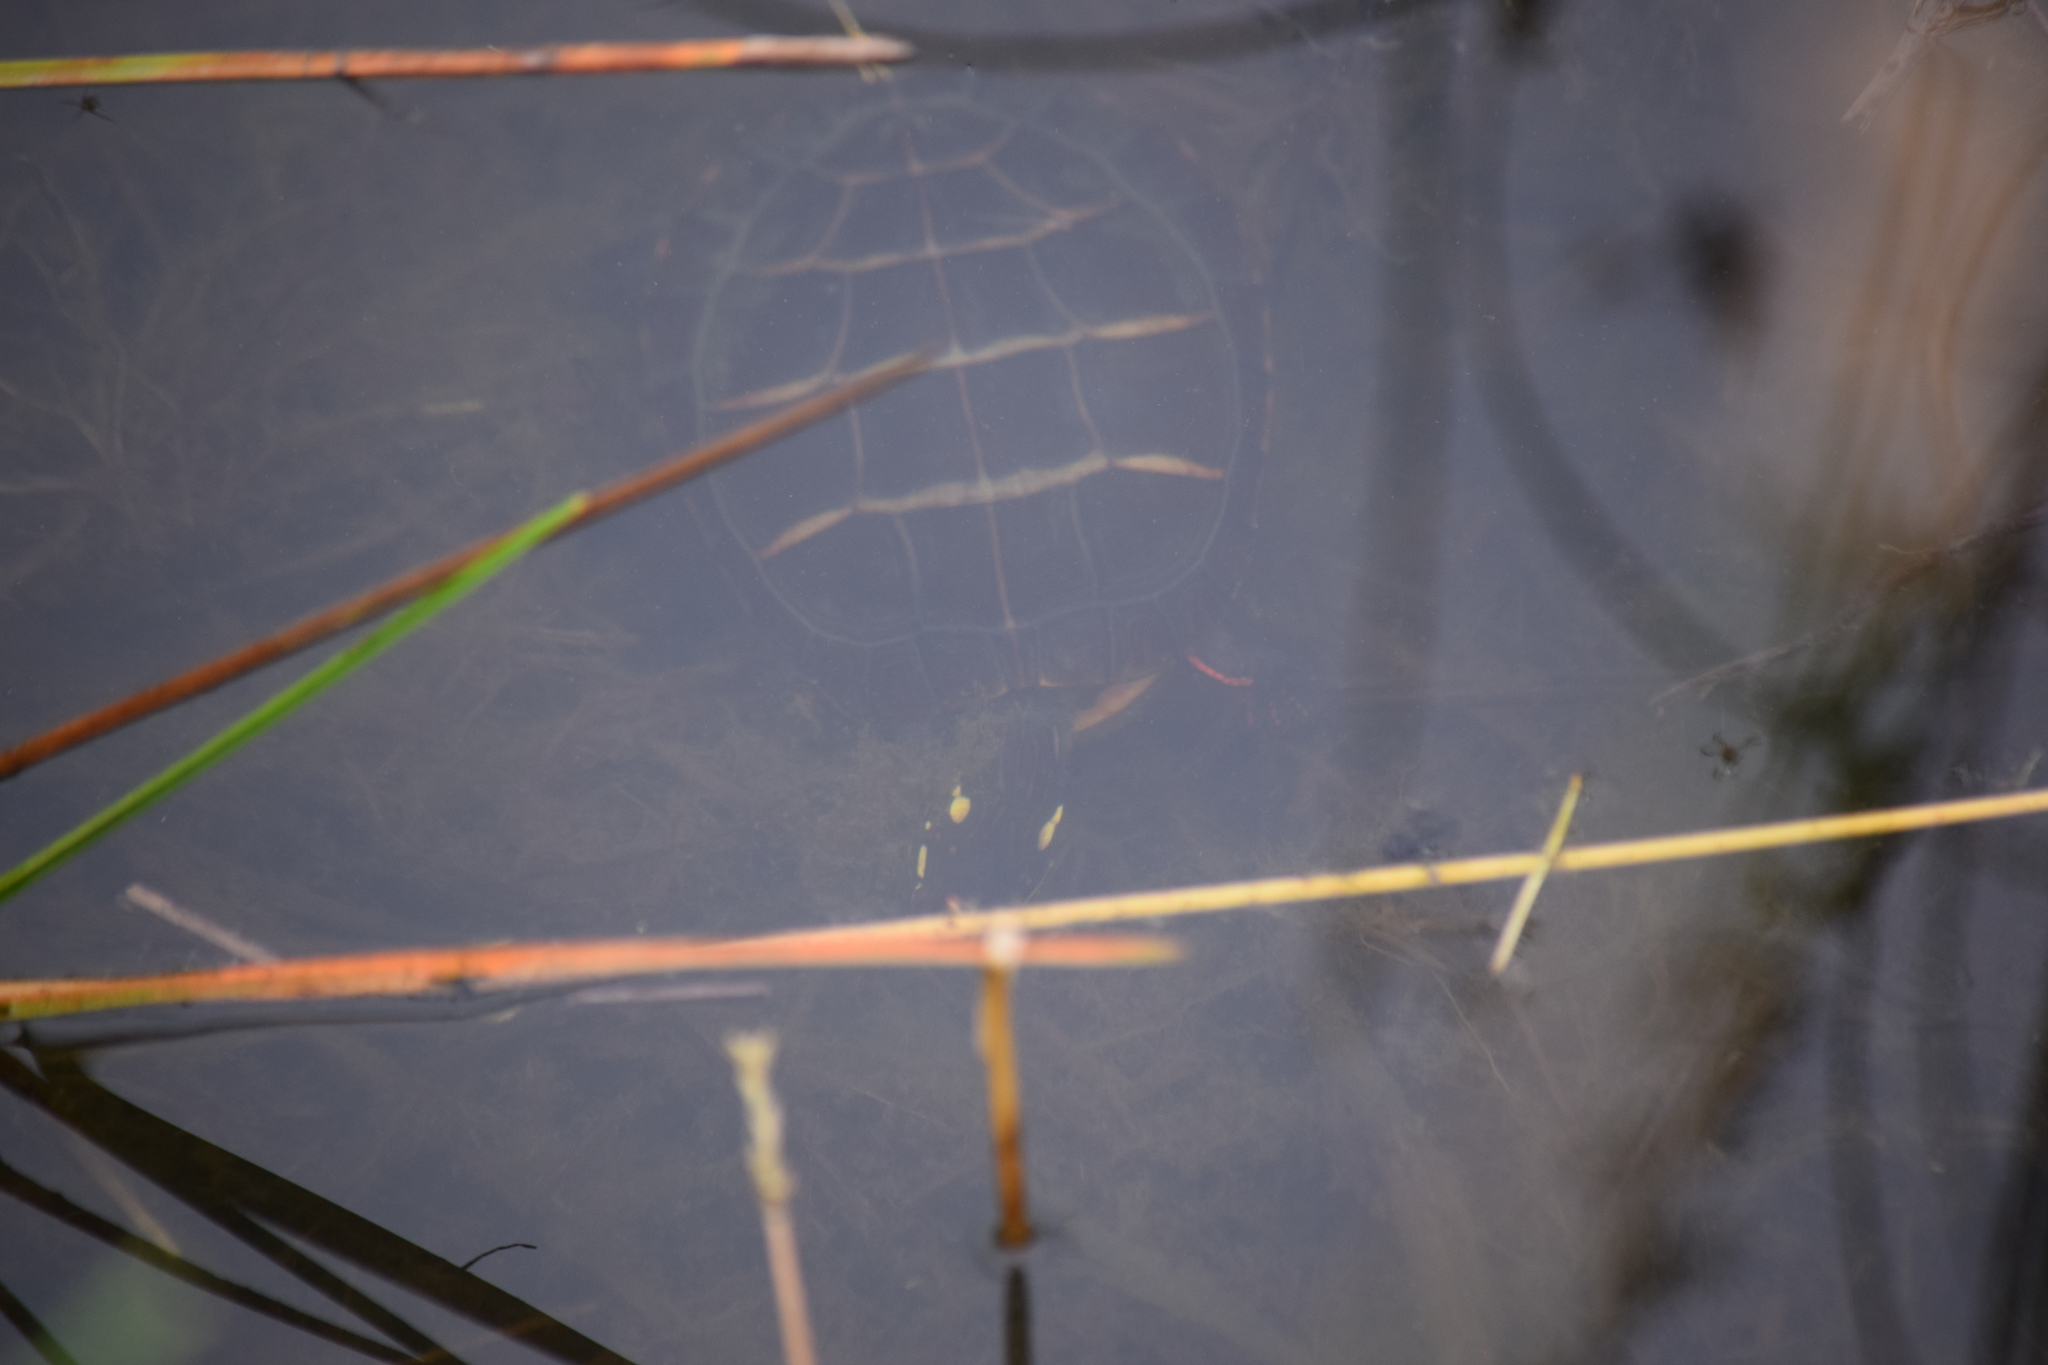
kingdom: Animalia
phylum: Chordata
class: Testudines
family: Emydidae
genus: Chrysemys
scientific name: Chrysemys picta
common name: Painted turtle
